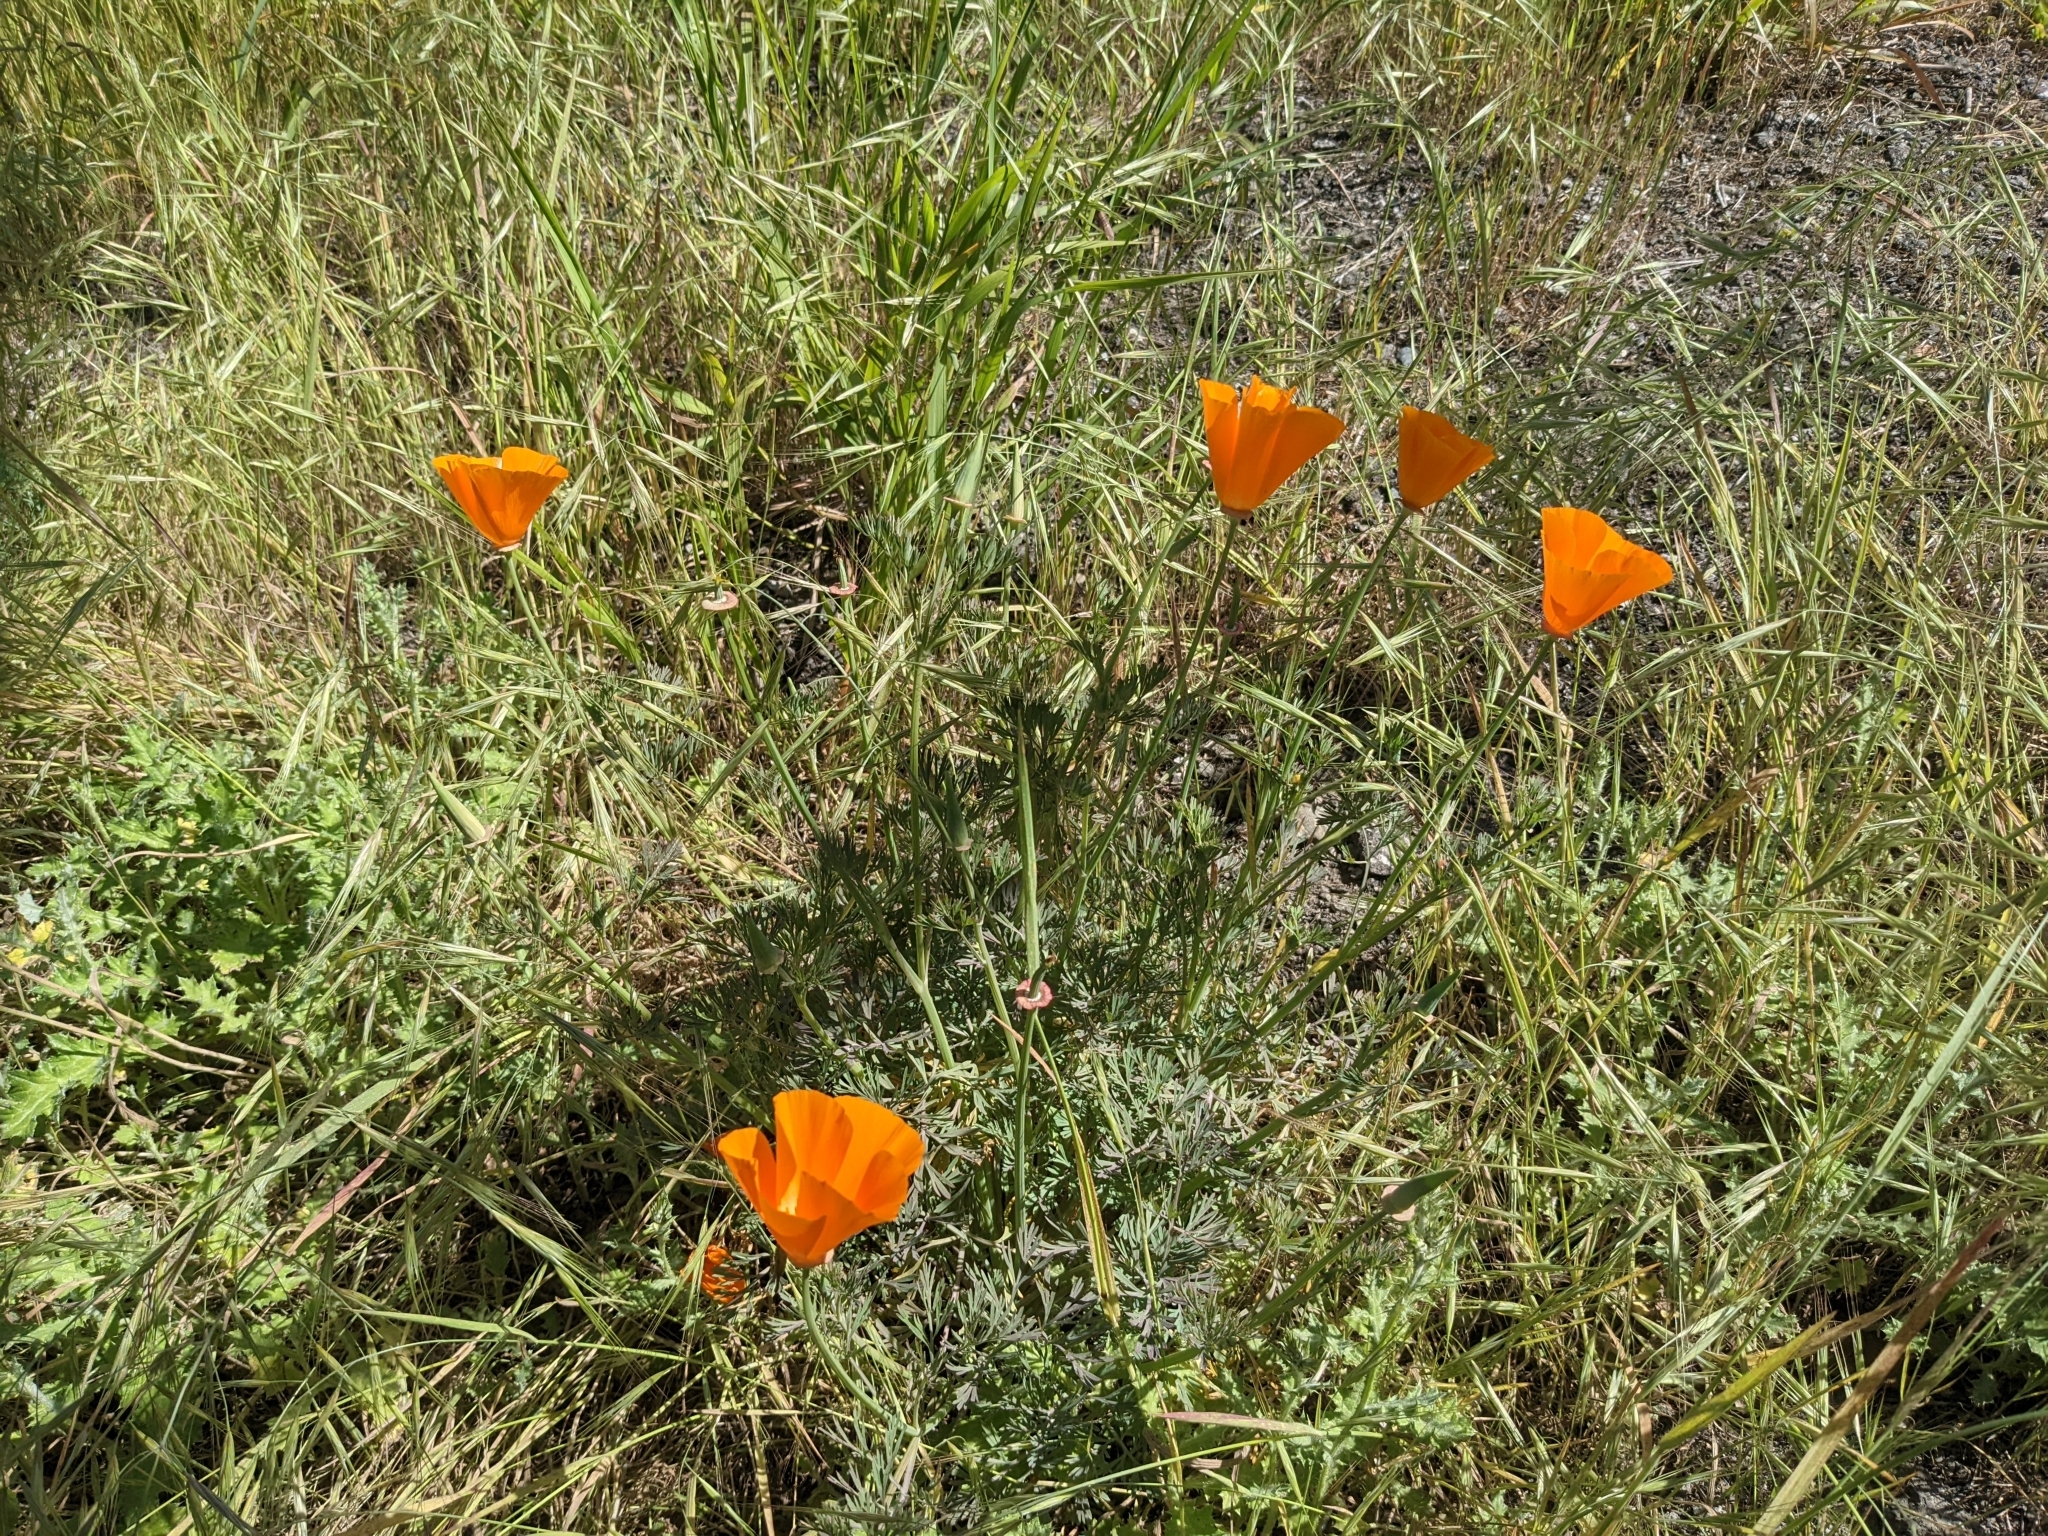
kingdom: Plantae
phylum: Tracheophyta
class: Magnoliopsida
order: Ranunculales
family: Papaveraceae
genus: Eschscholzia
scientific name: Eschscholzia californica
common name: California poppy
